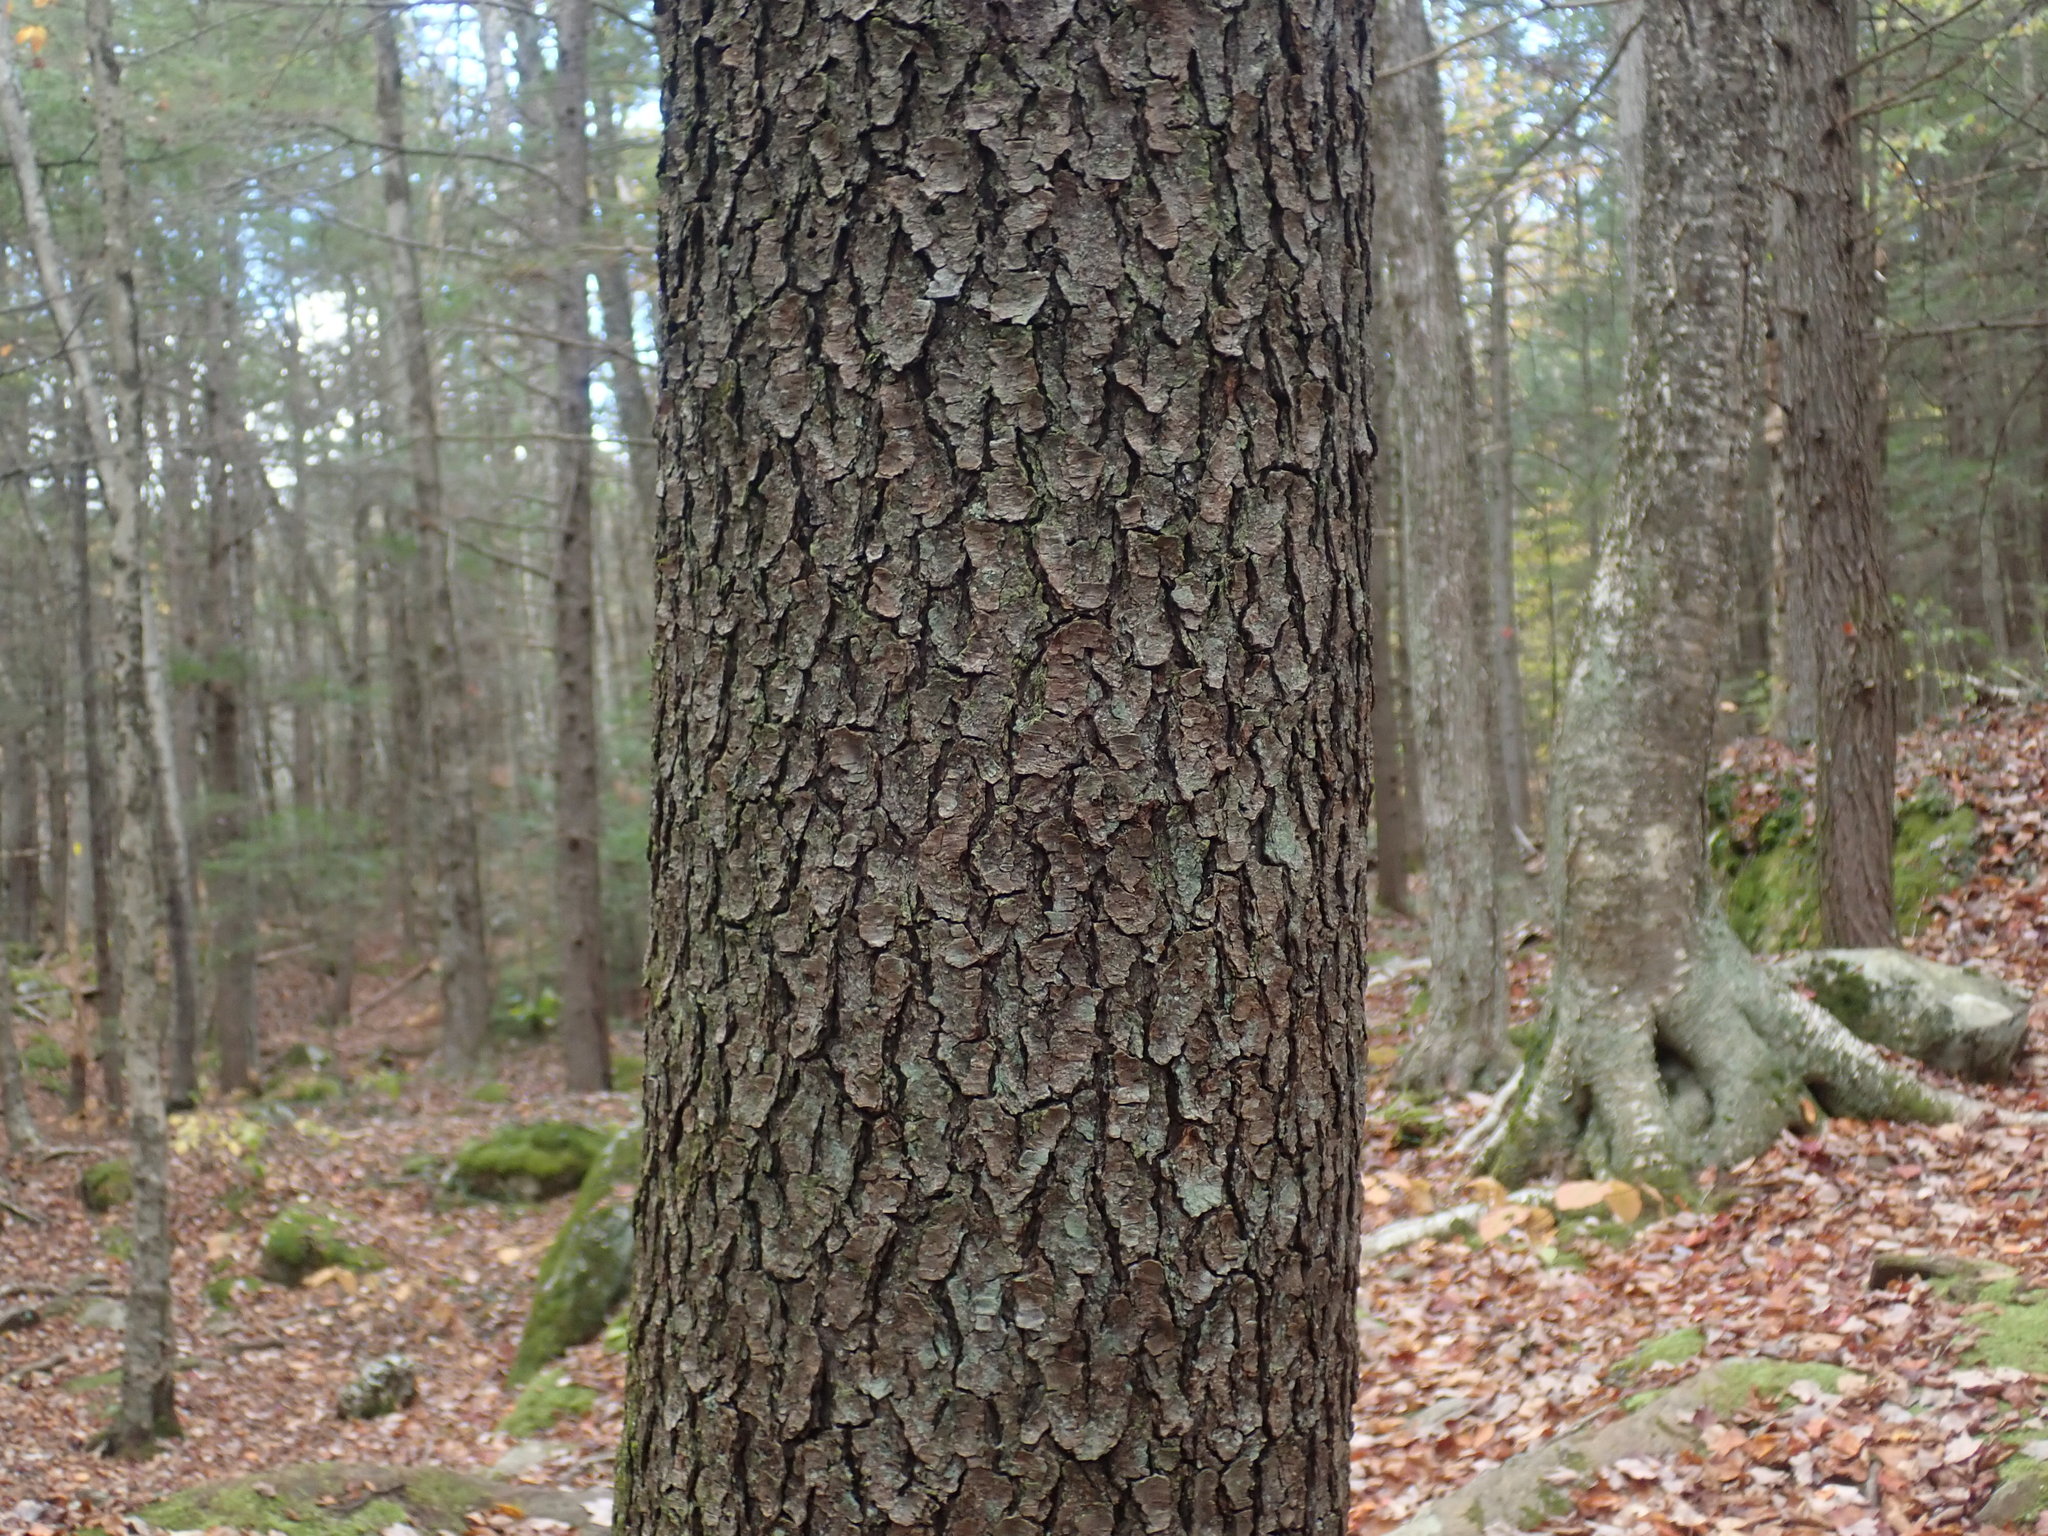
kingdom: Plantae
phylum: Tracheophyta
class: Magnoliopsida
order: Rosales
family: Rosaceae
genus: Prunus
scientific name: Prunus serotina
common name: Black cherry
